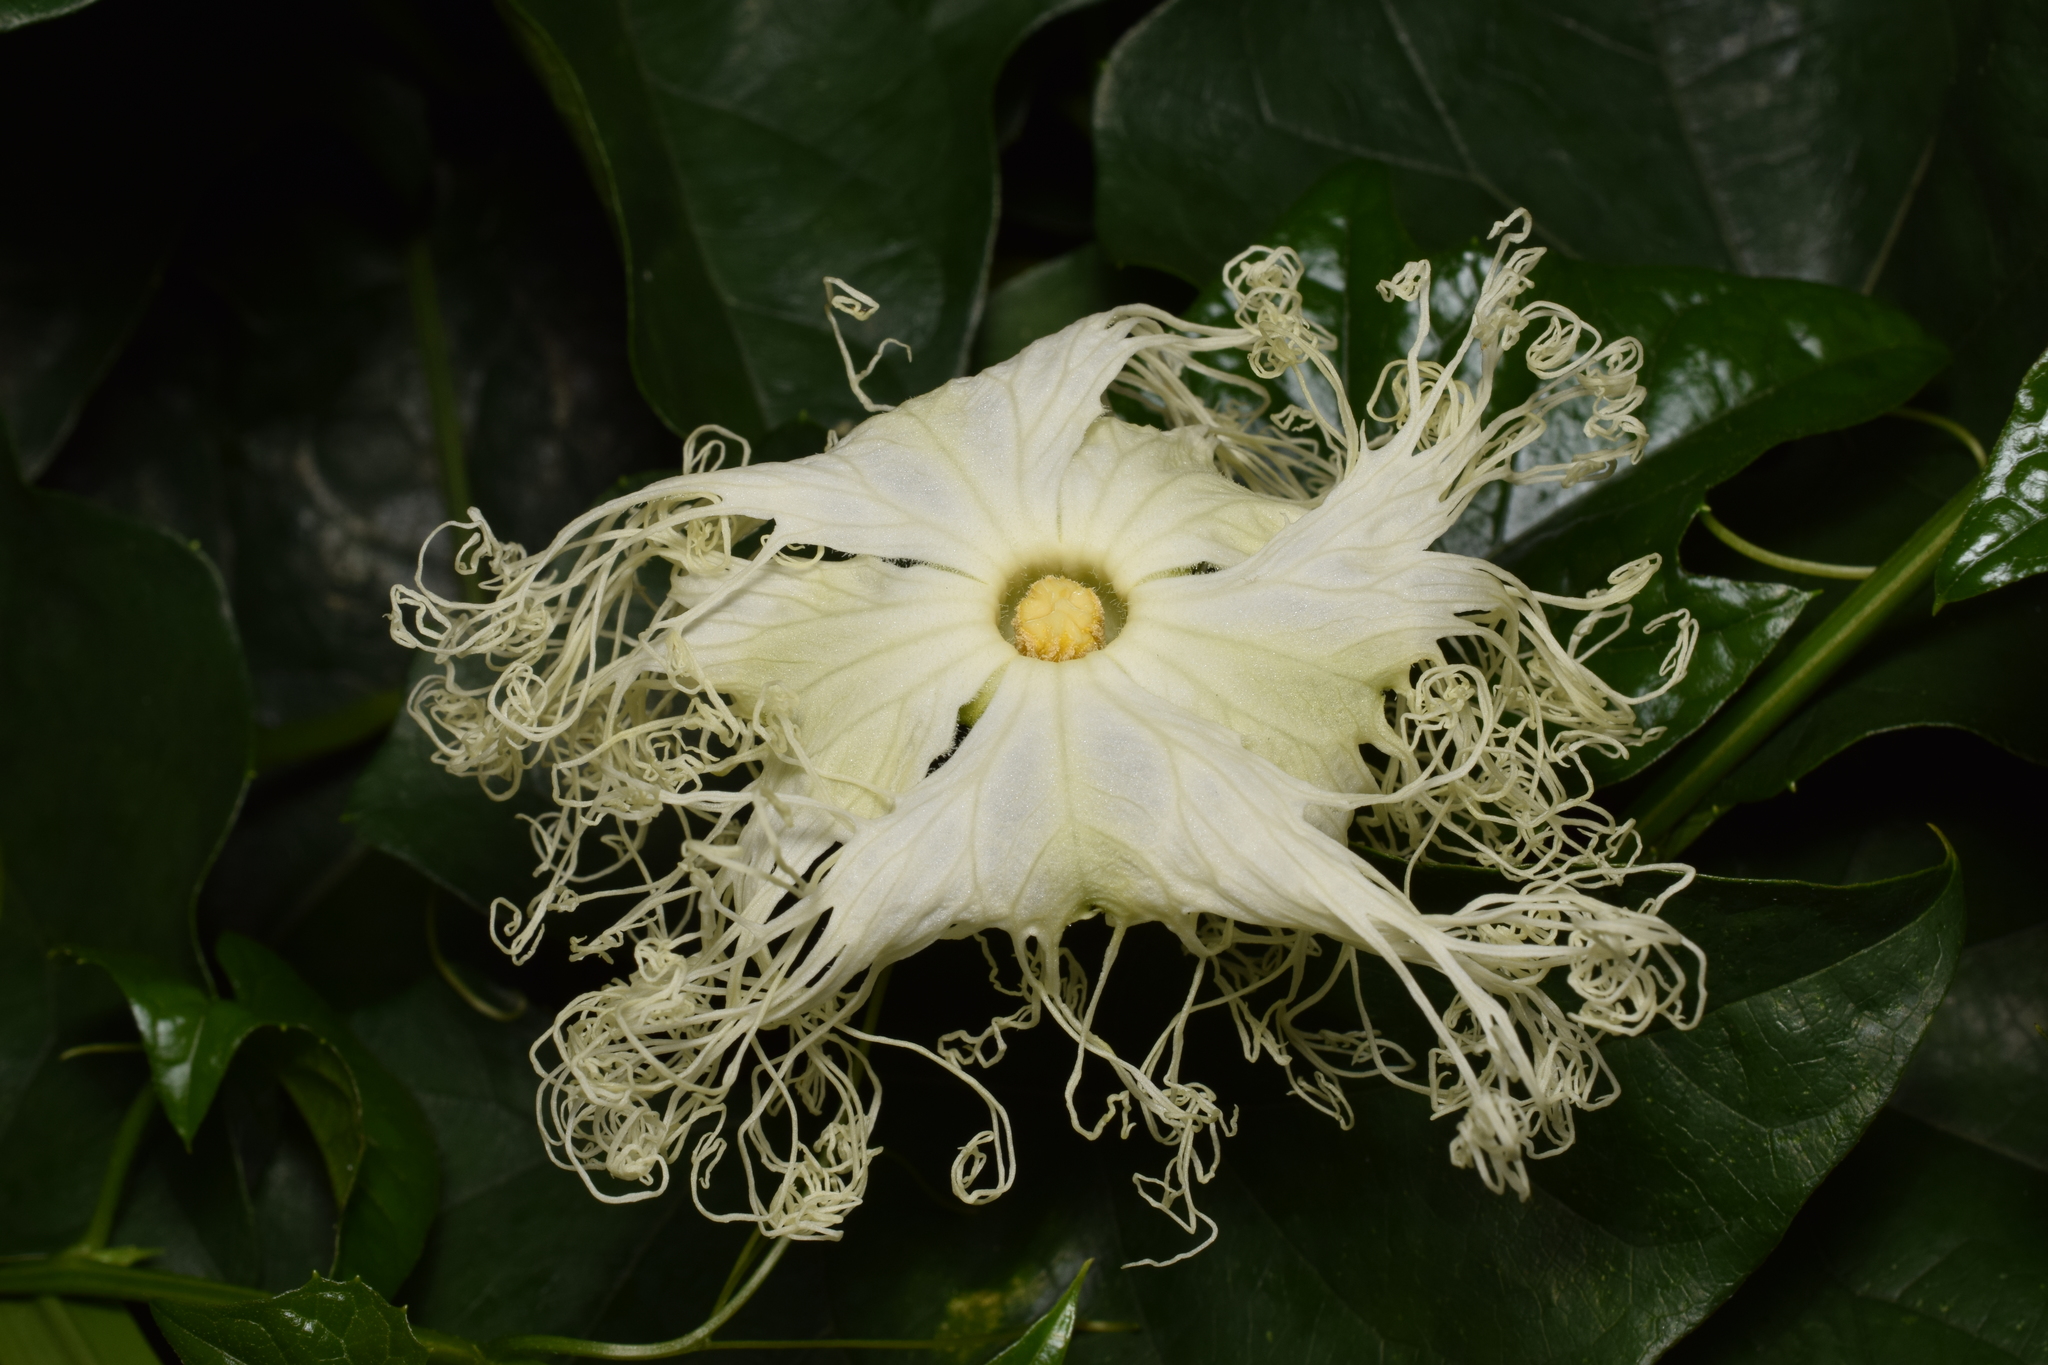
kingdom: Plantae
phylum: Tracheophyta
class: Magnoliopsida
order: Cucurbitales
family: Cucurbitaceae
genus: Trichosanthes
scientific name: Trichosanthes kirilowii
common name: Chinese-cucumber
